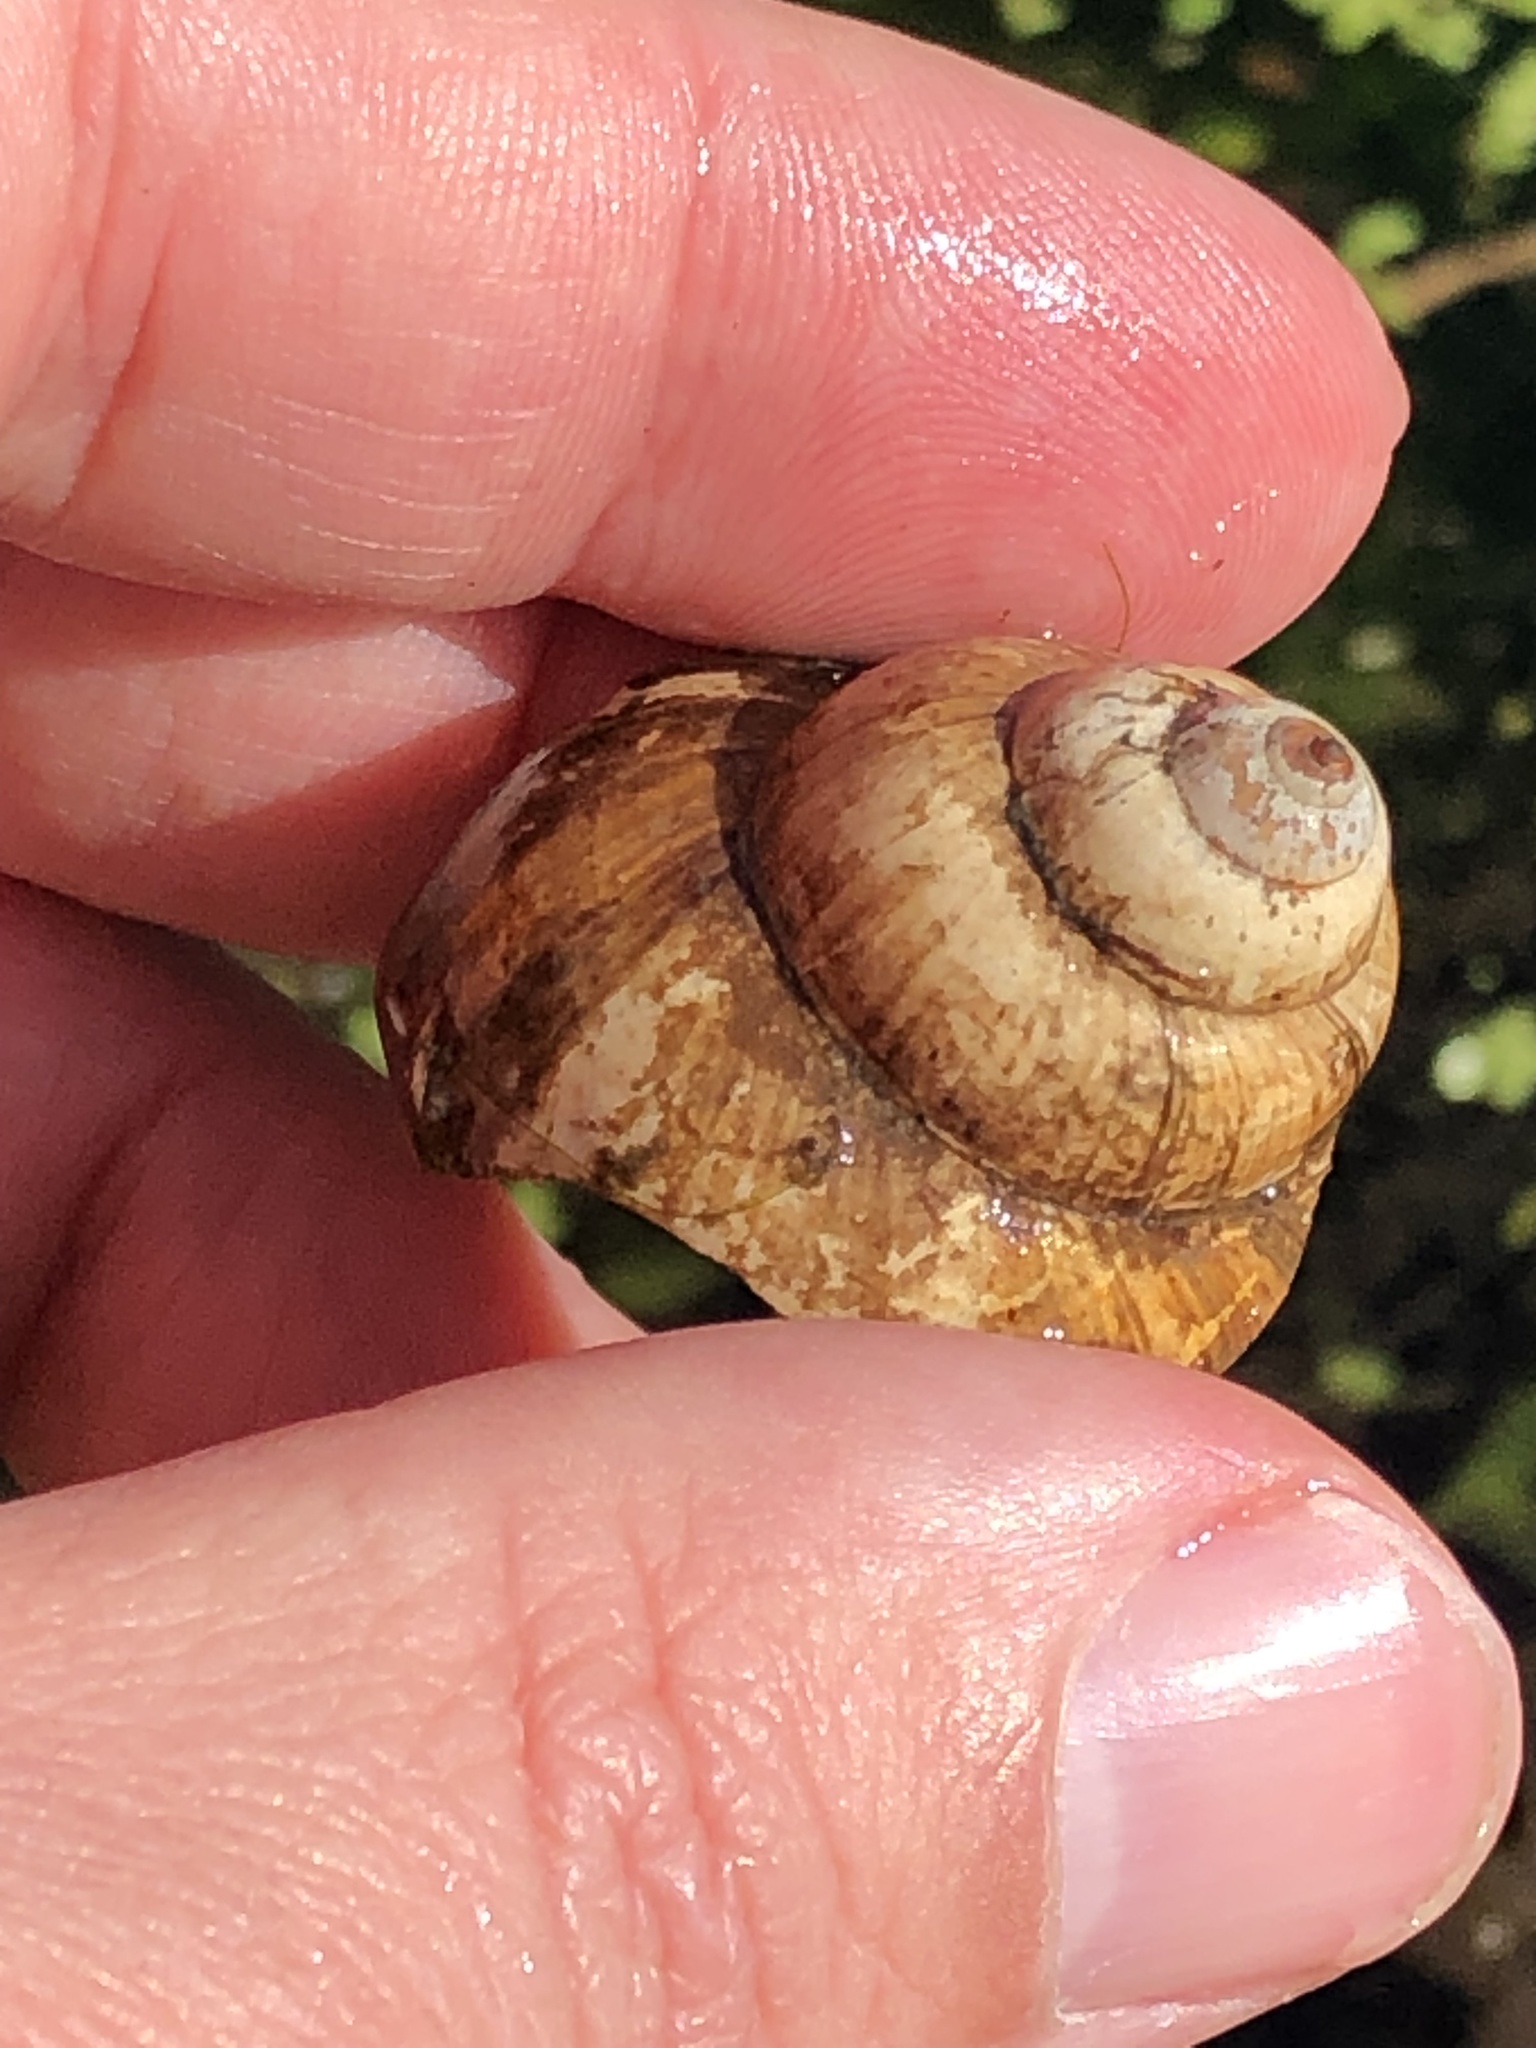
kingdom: Animalia
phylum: Mollusca
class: Gastropoda
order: Architaenioglossa
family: Viviparidae
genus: Cipangopaludina
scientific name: Cipangopaludina chinensis
